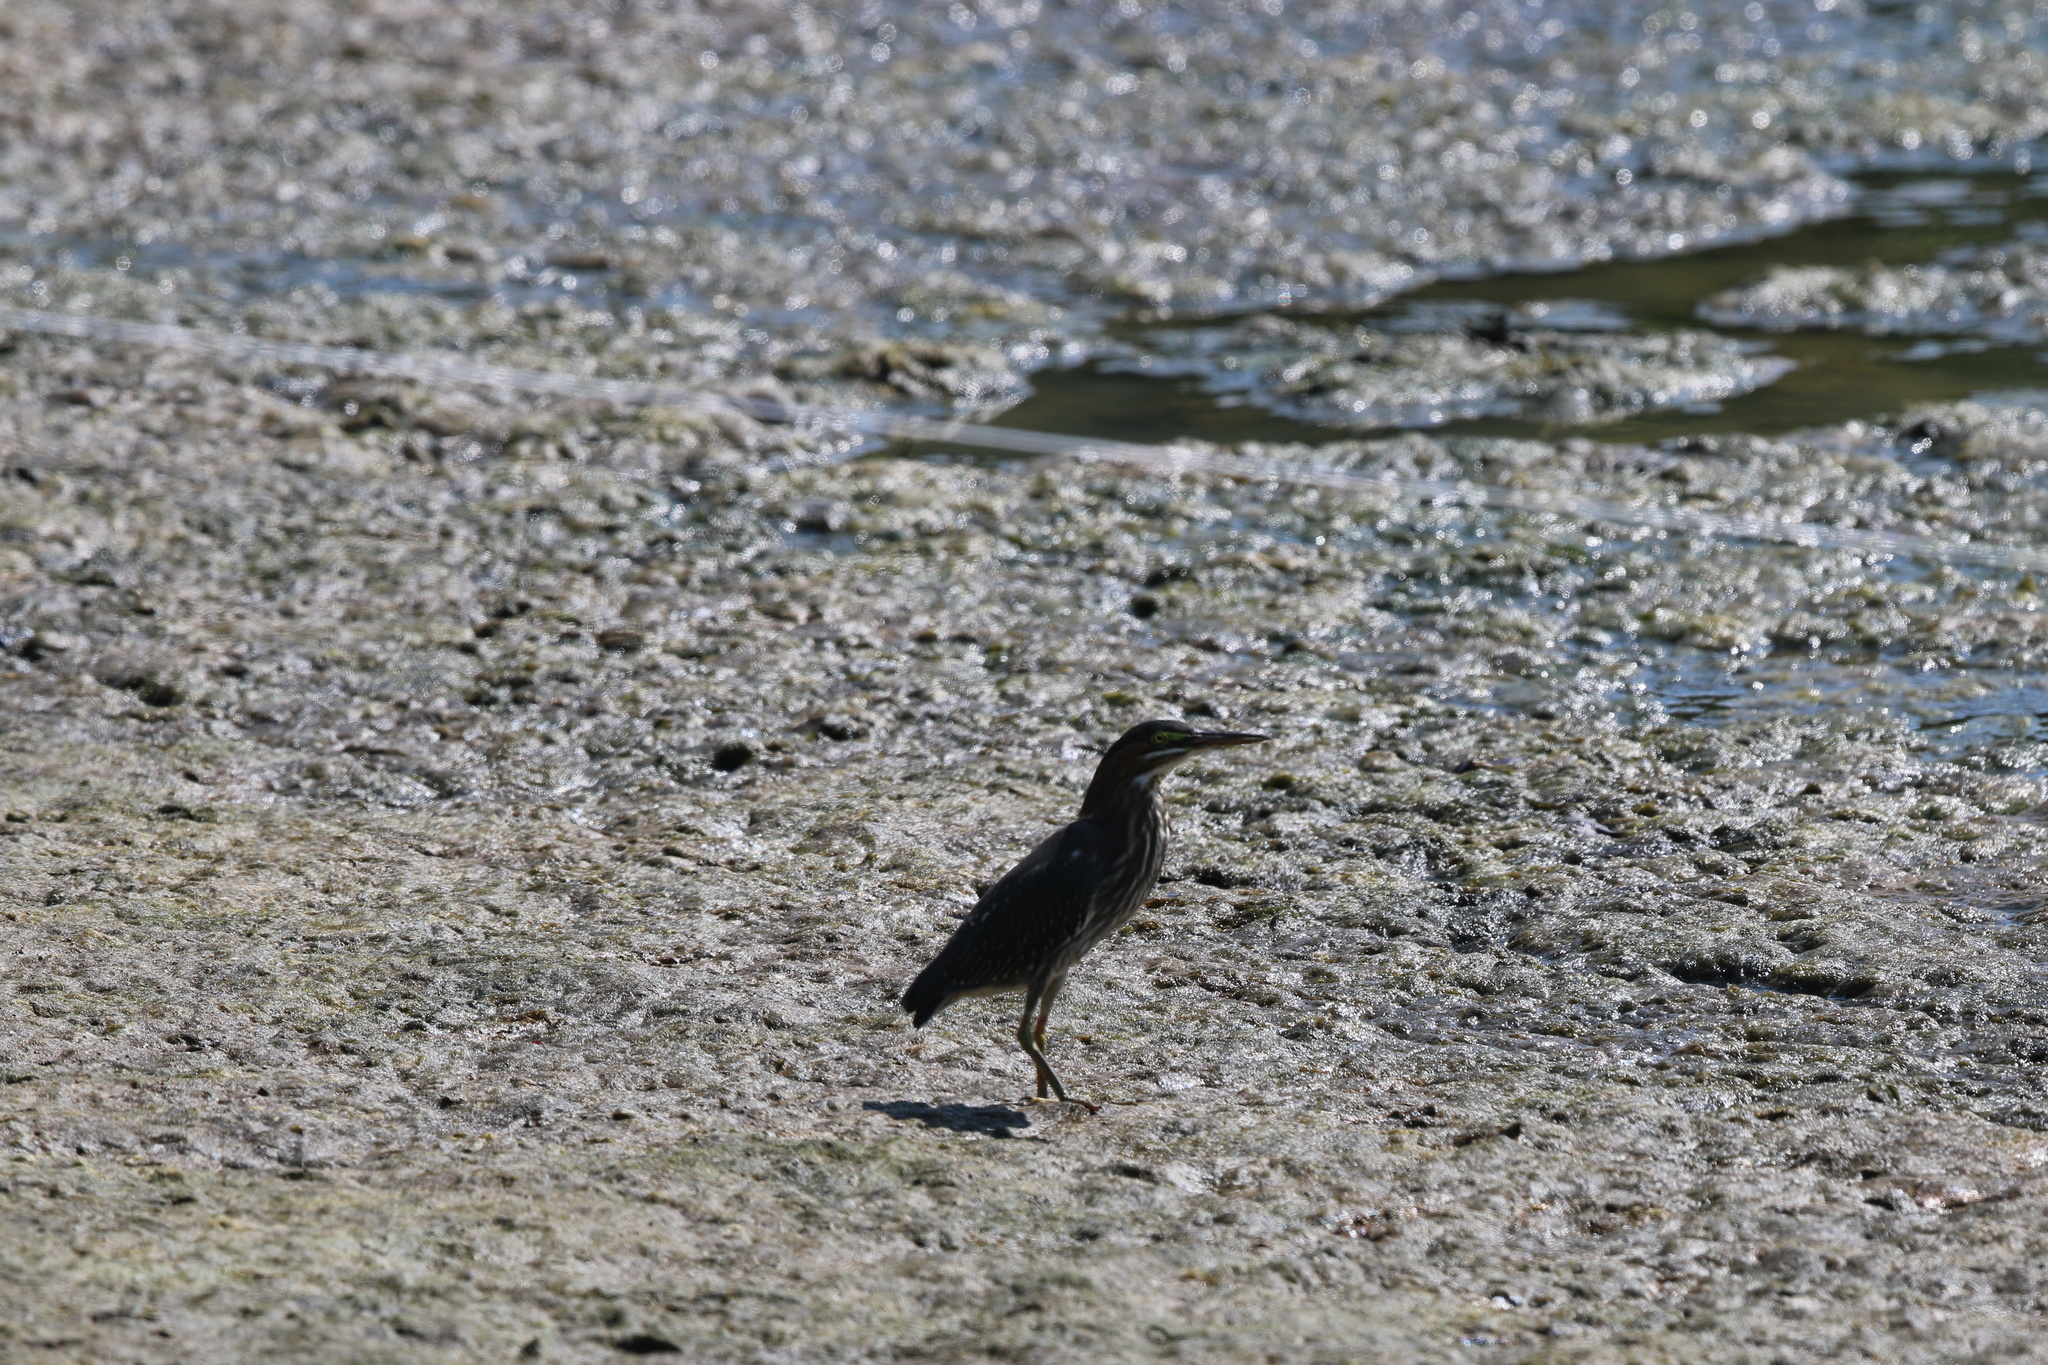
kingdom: Animalia
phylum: Chordata
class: Aves
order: Pelecaniformes
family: Ardeidae
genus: Butorides
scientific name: Butorides virescens
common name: Green heron
